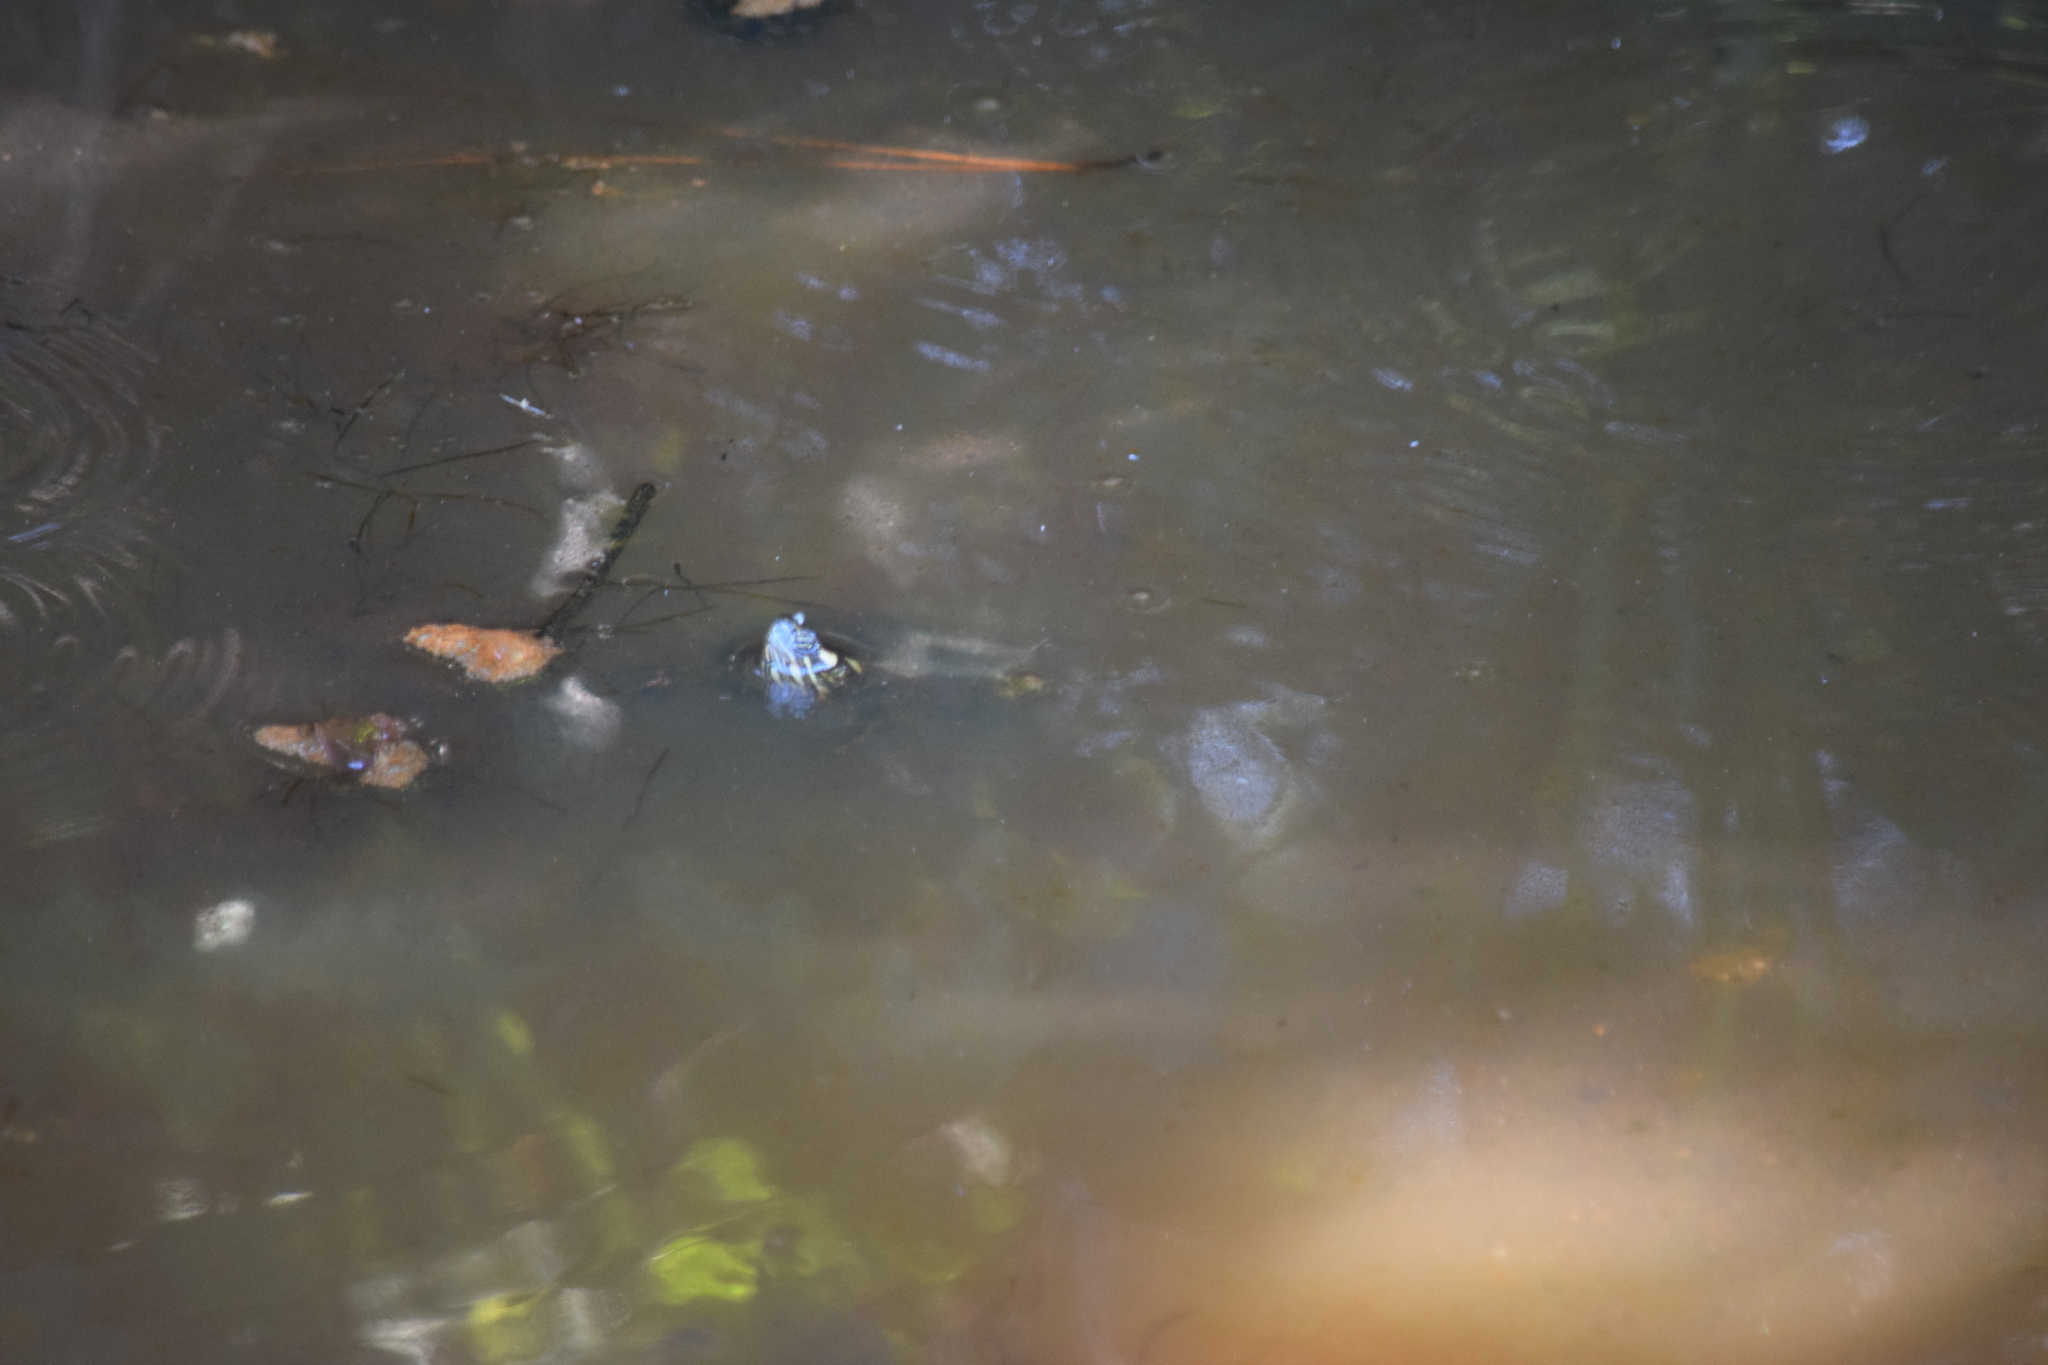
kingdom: Animalia
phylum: Chordata
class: Testudines
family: Emydidae
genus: Chrysemys
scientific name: Chrysemys picta
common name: Painted turtle
